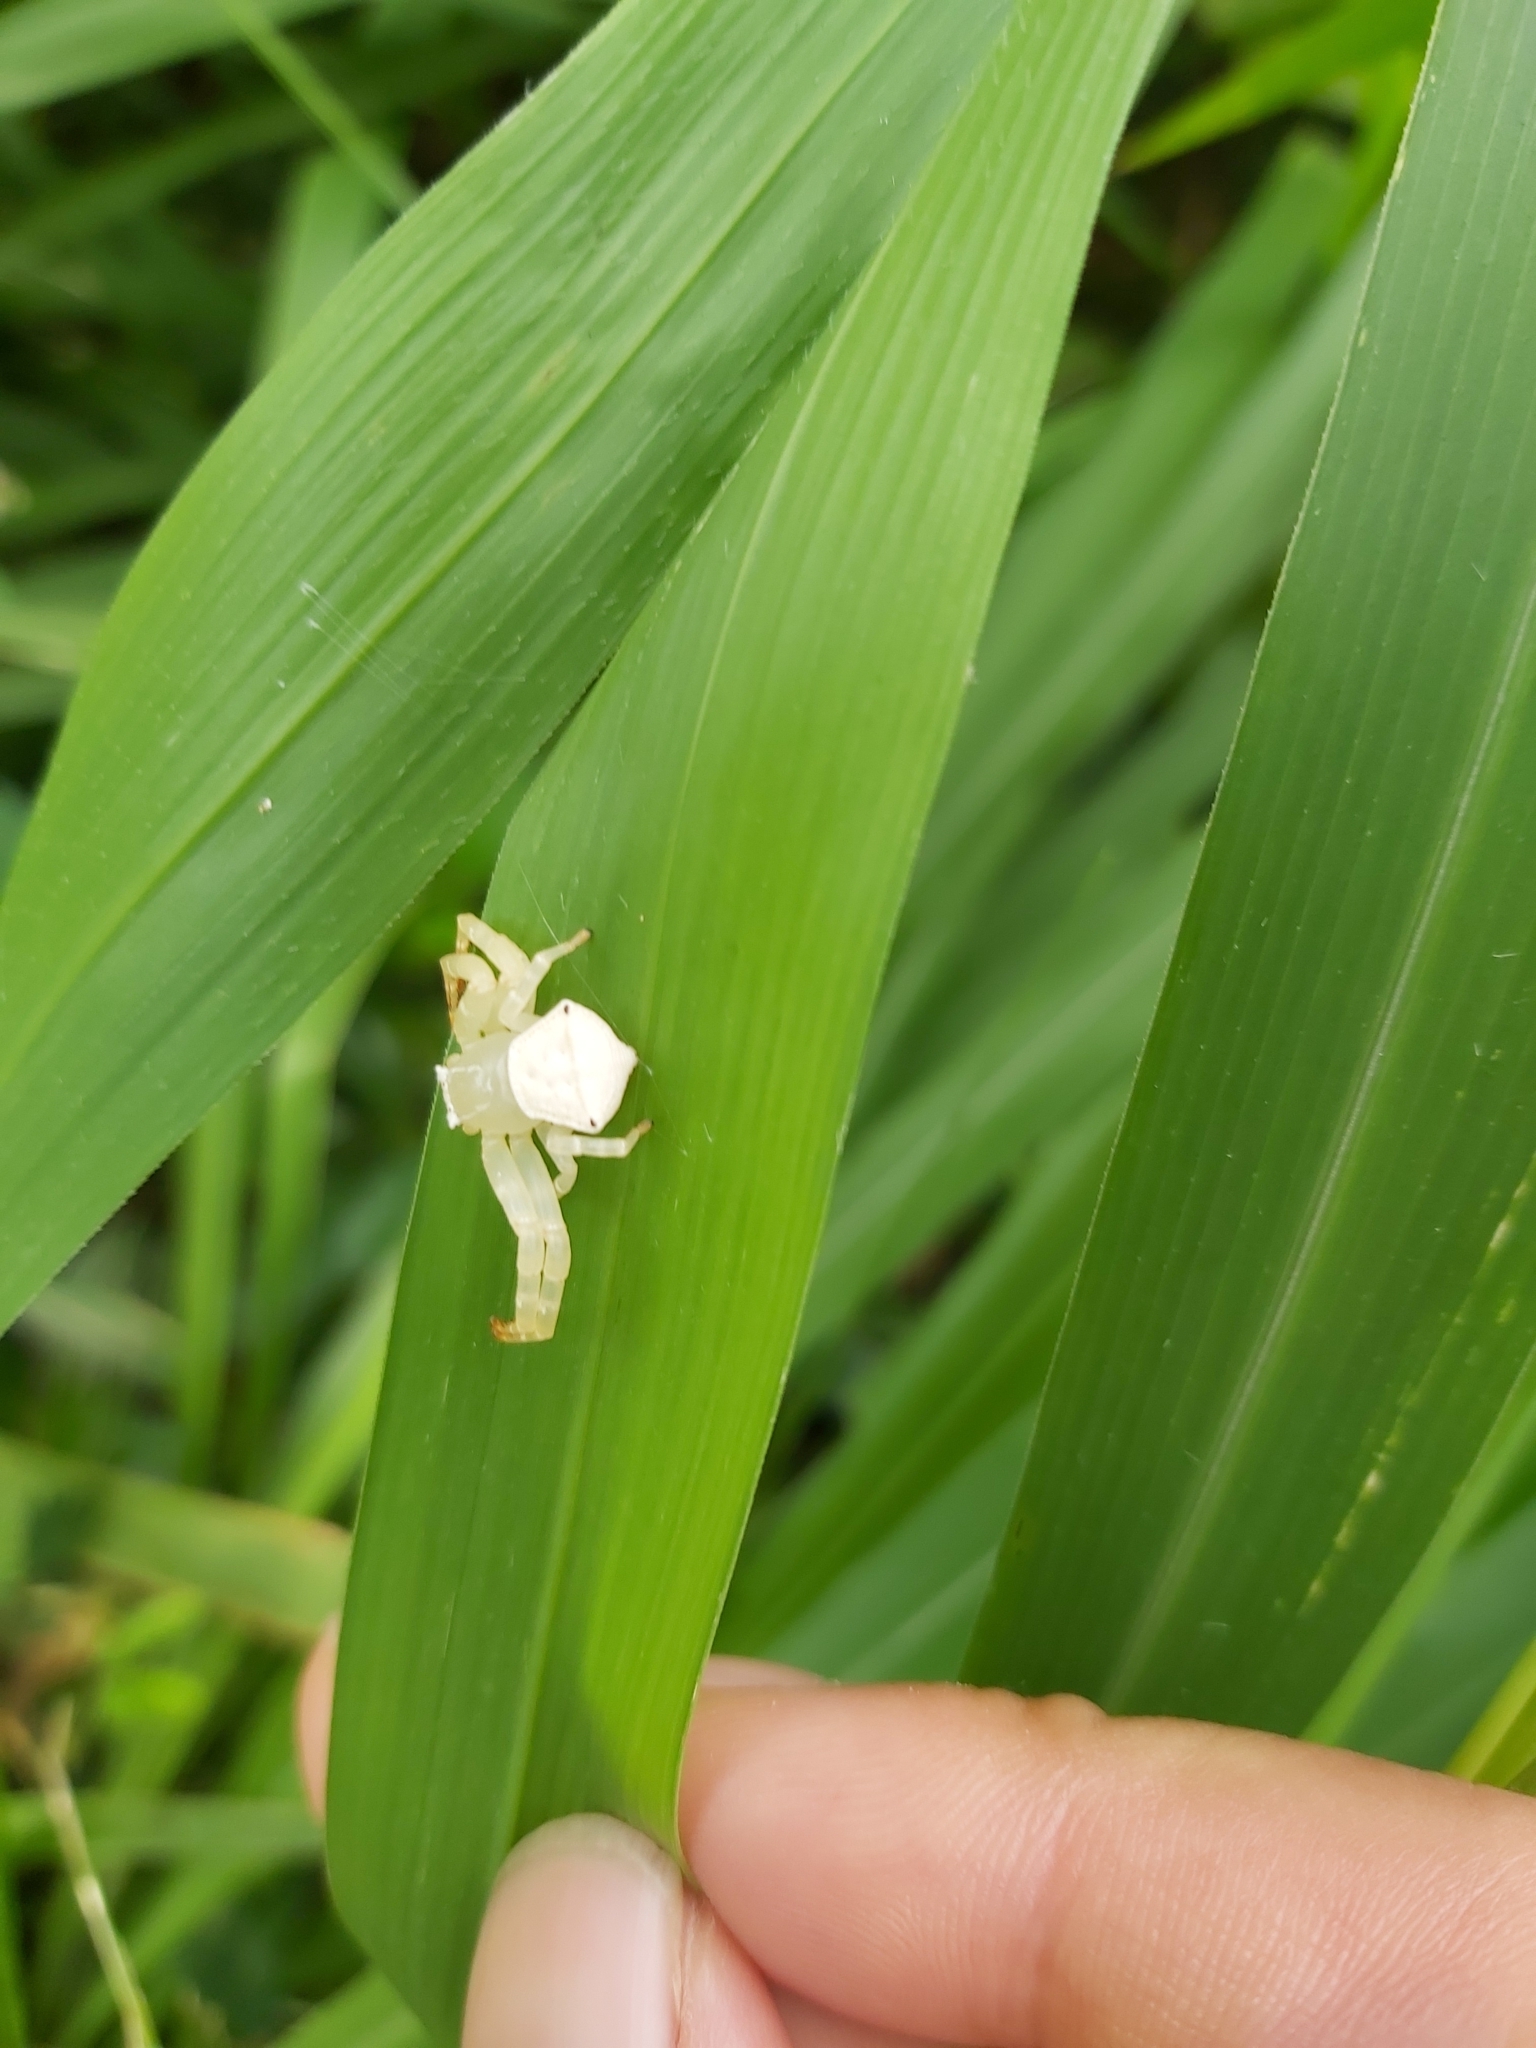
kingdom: Animalia
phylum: Arthropoda
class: Arachnida
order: Araneae
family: Thomisidae
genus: Thomisus
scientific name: Thomisus spectabilis
